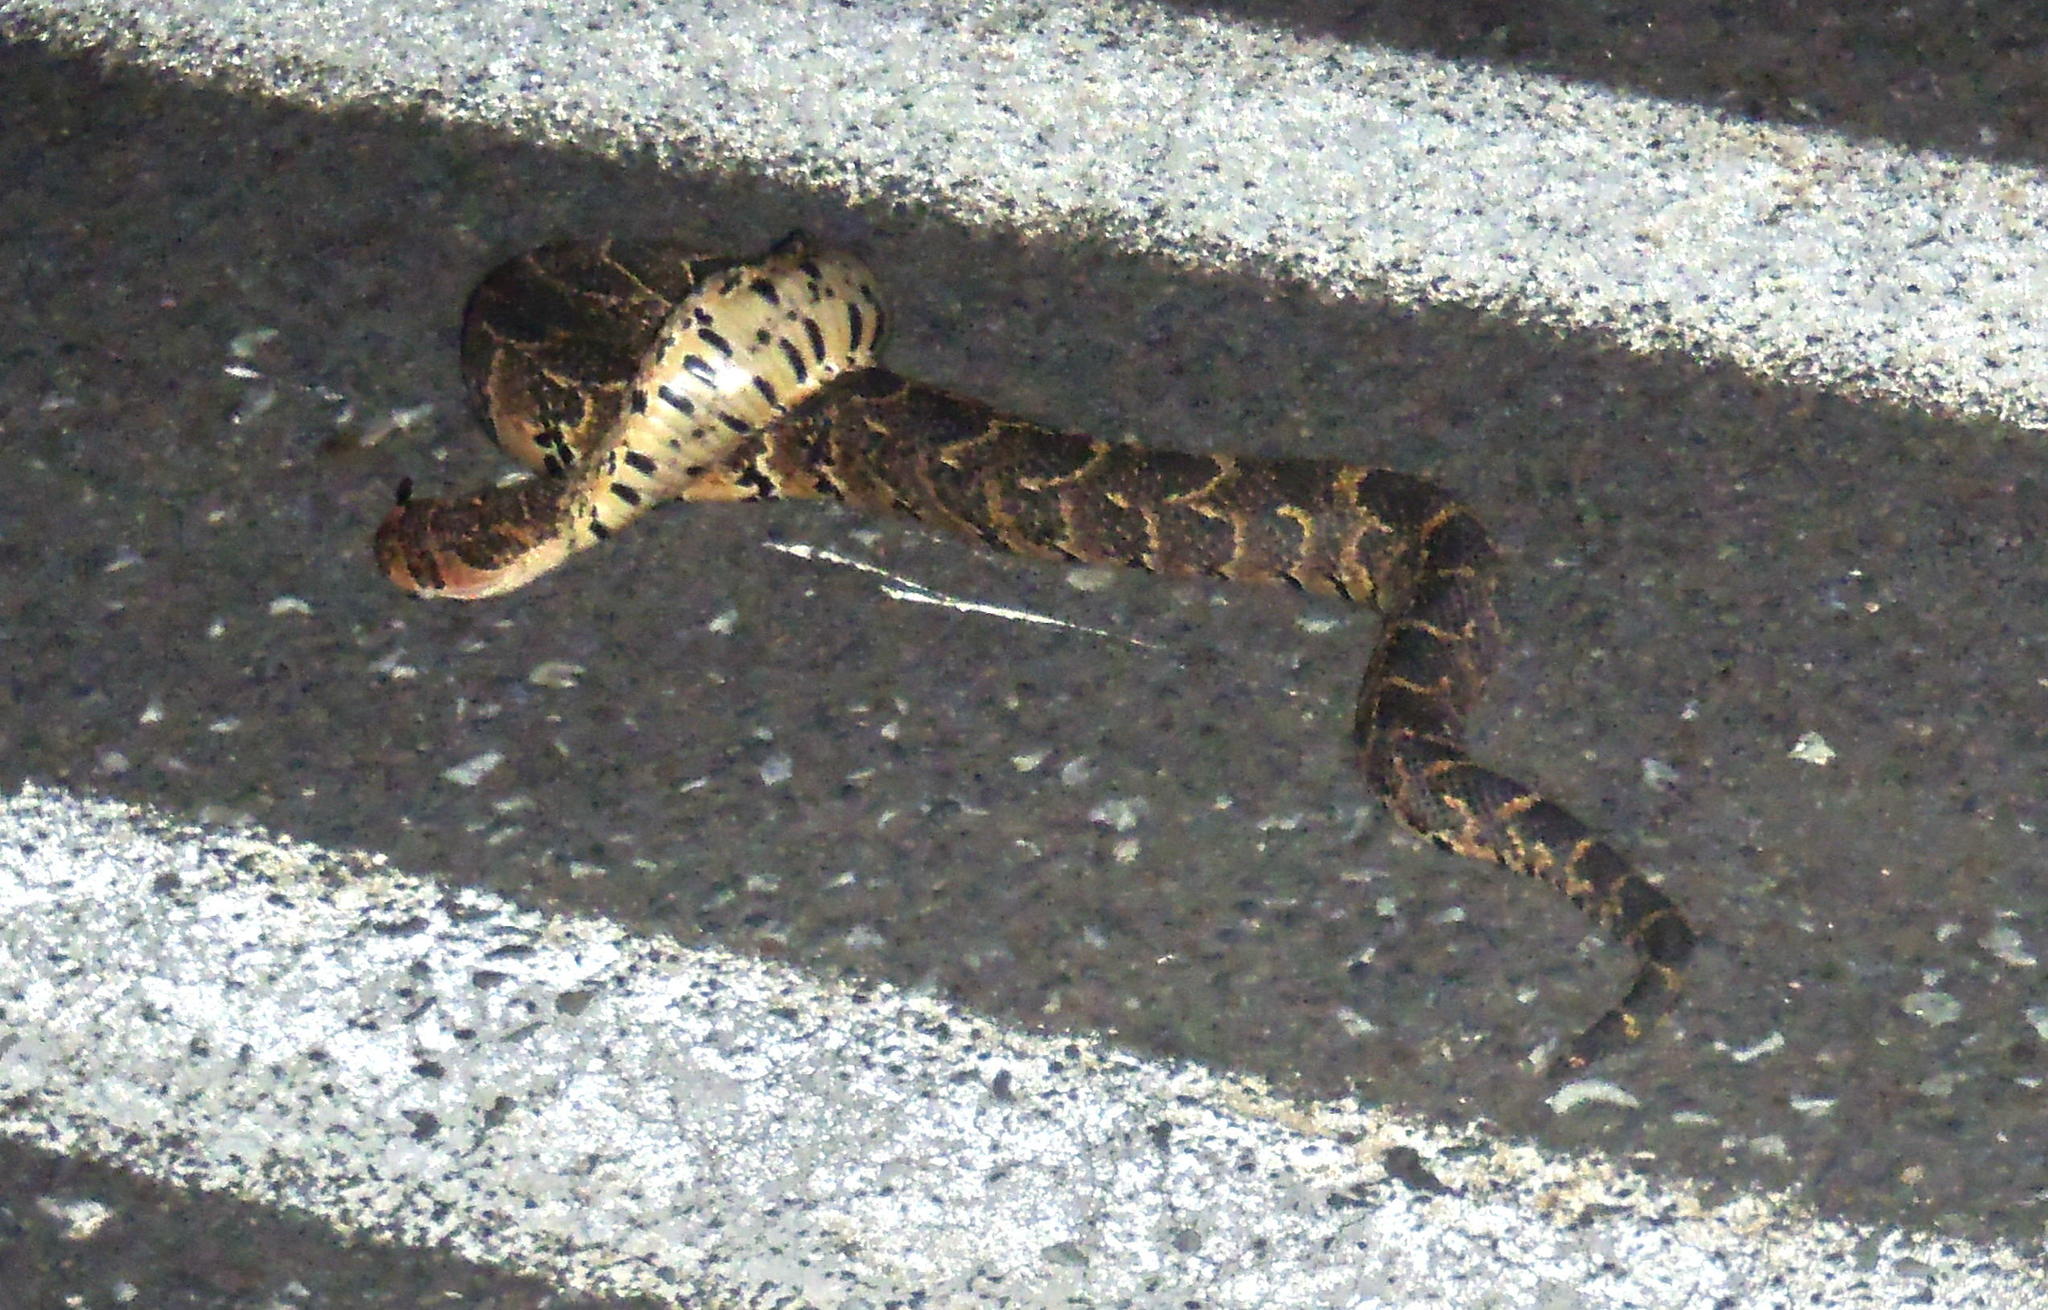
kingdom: Animalia
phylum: Chordata
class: Squamata
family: Viperidae
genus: Bitis
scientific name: Bitis arietans
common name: Puff adder
